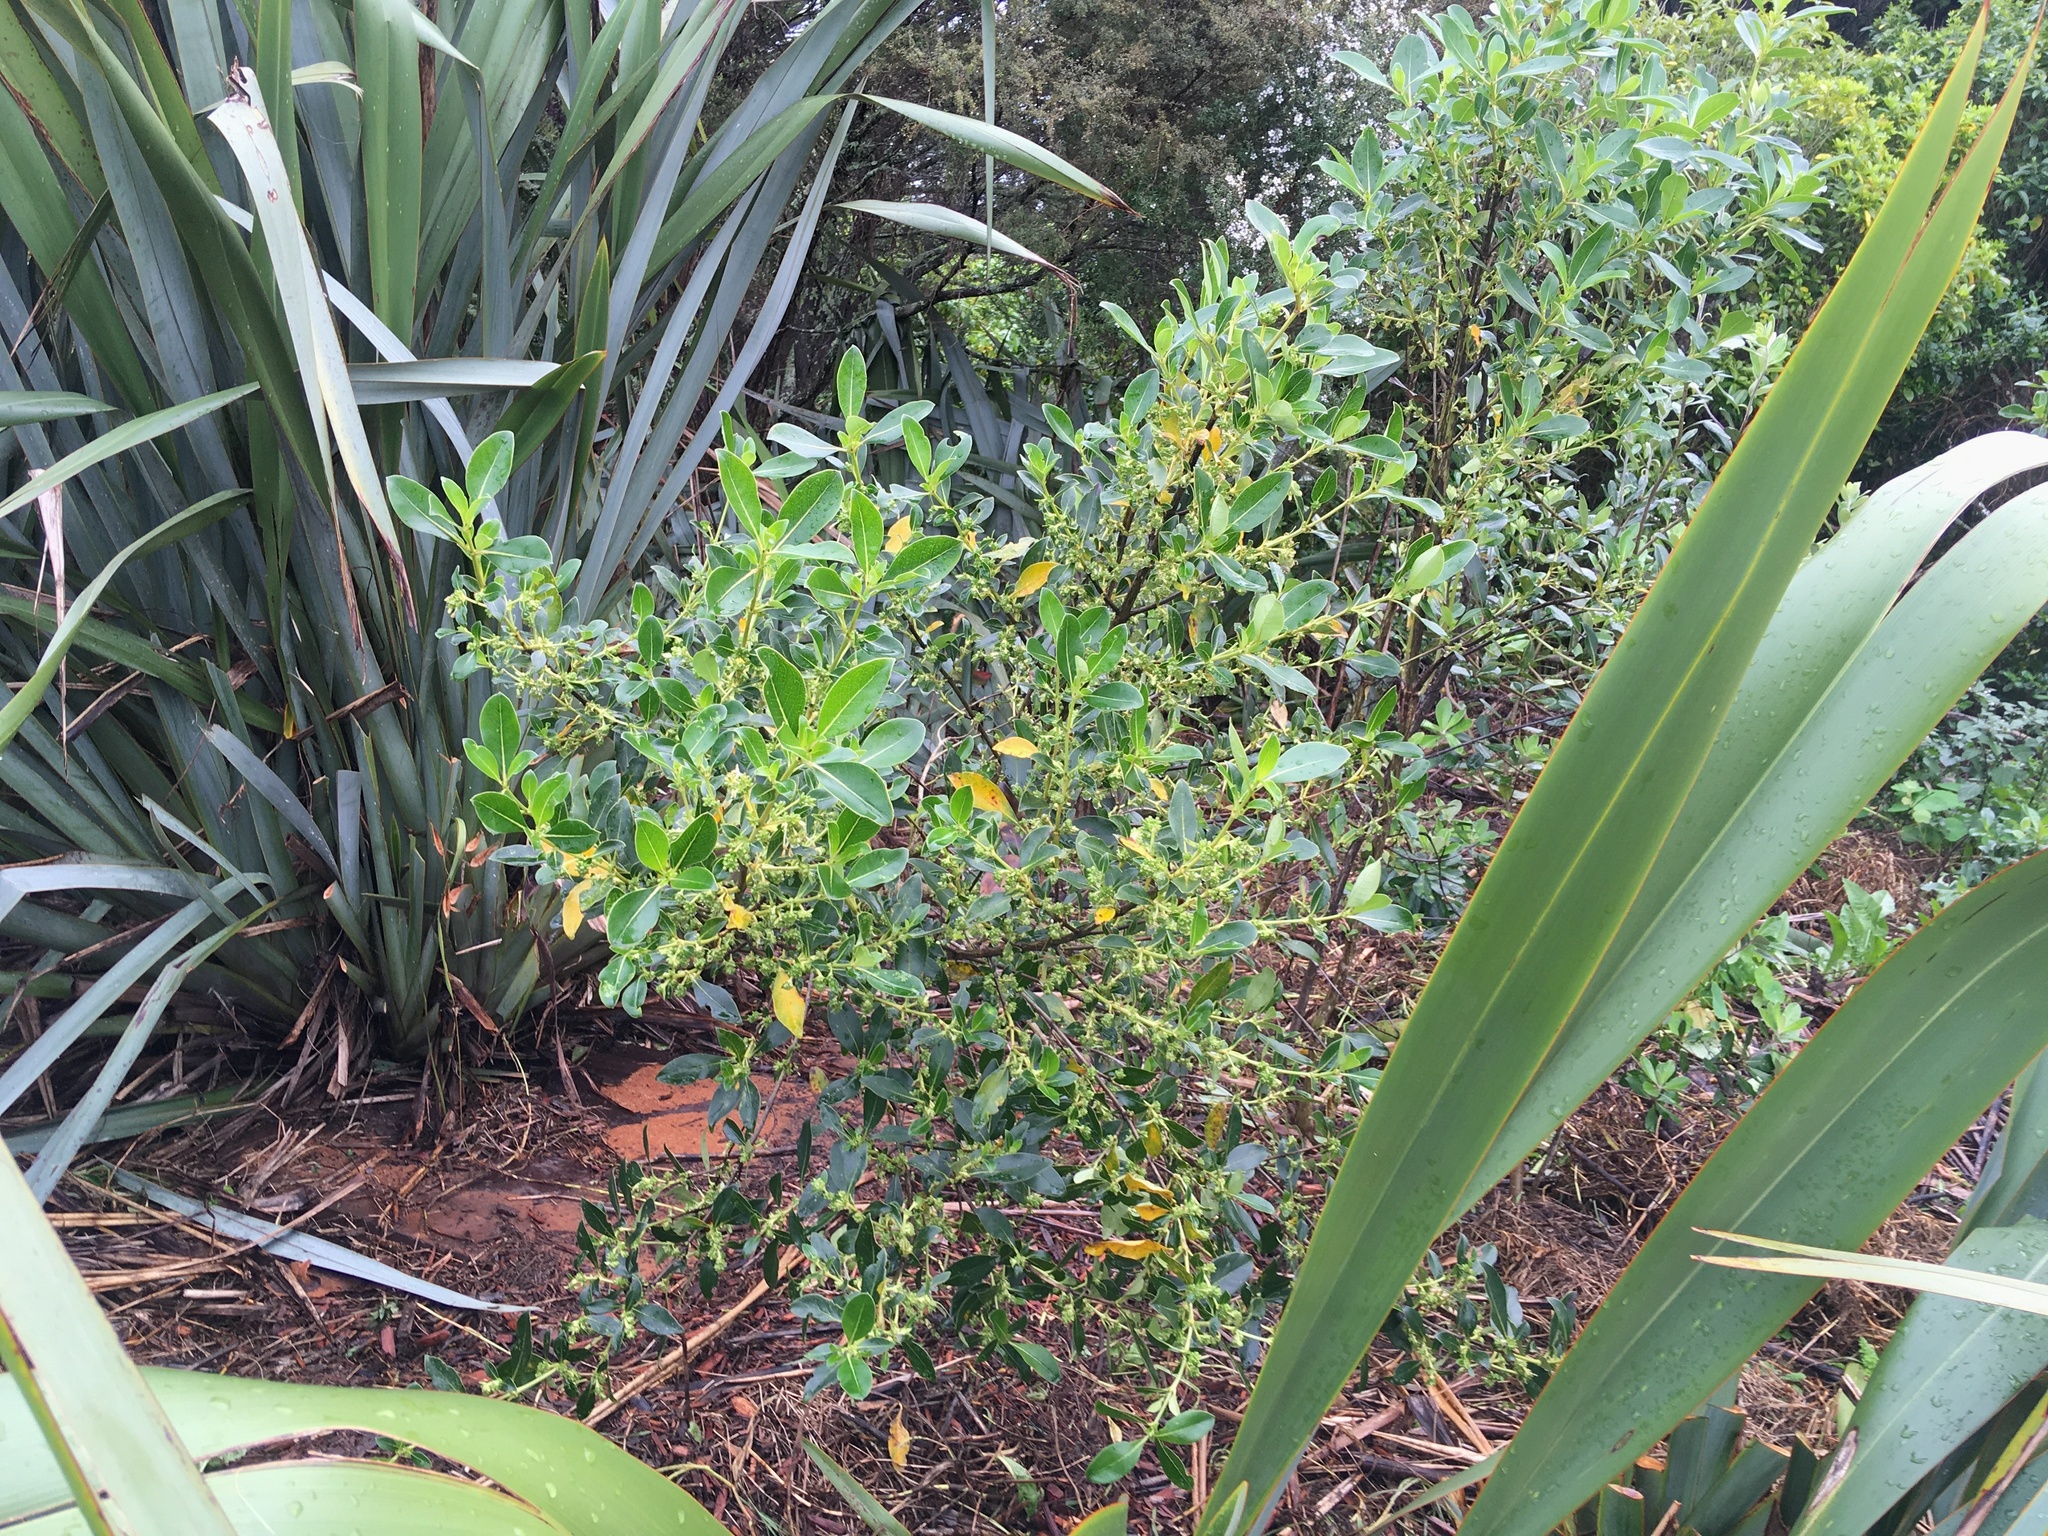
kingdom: Plantae
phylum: Tracheophyta
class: Magnoliopsida
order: Gentianales
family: Rubiaceae
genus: Coprosma
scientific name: Coprosma robusta
